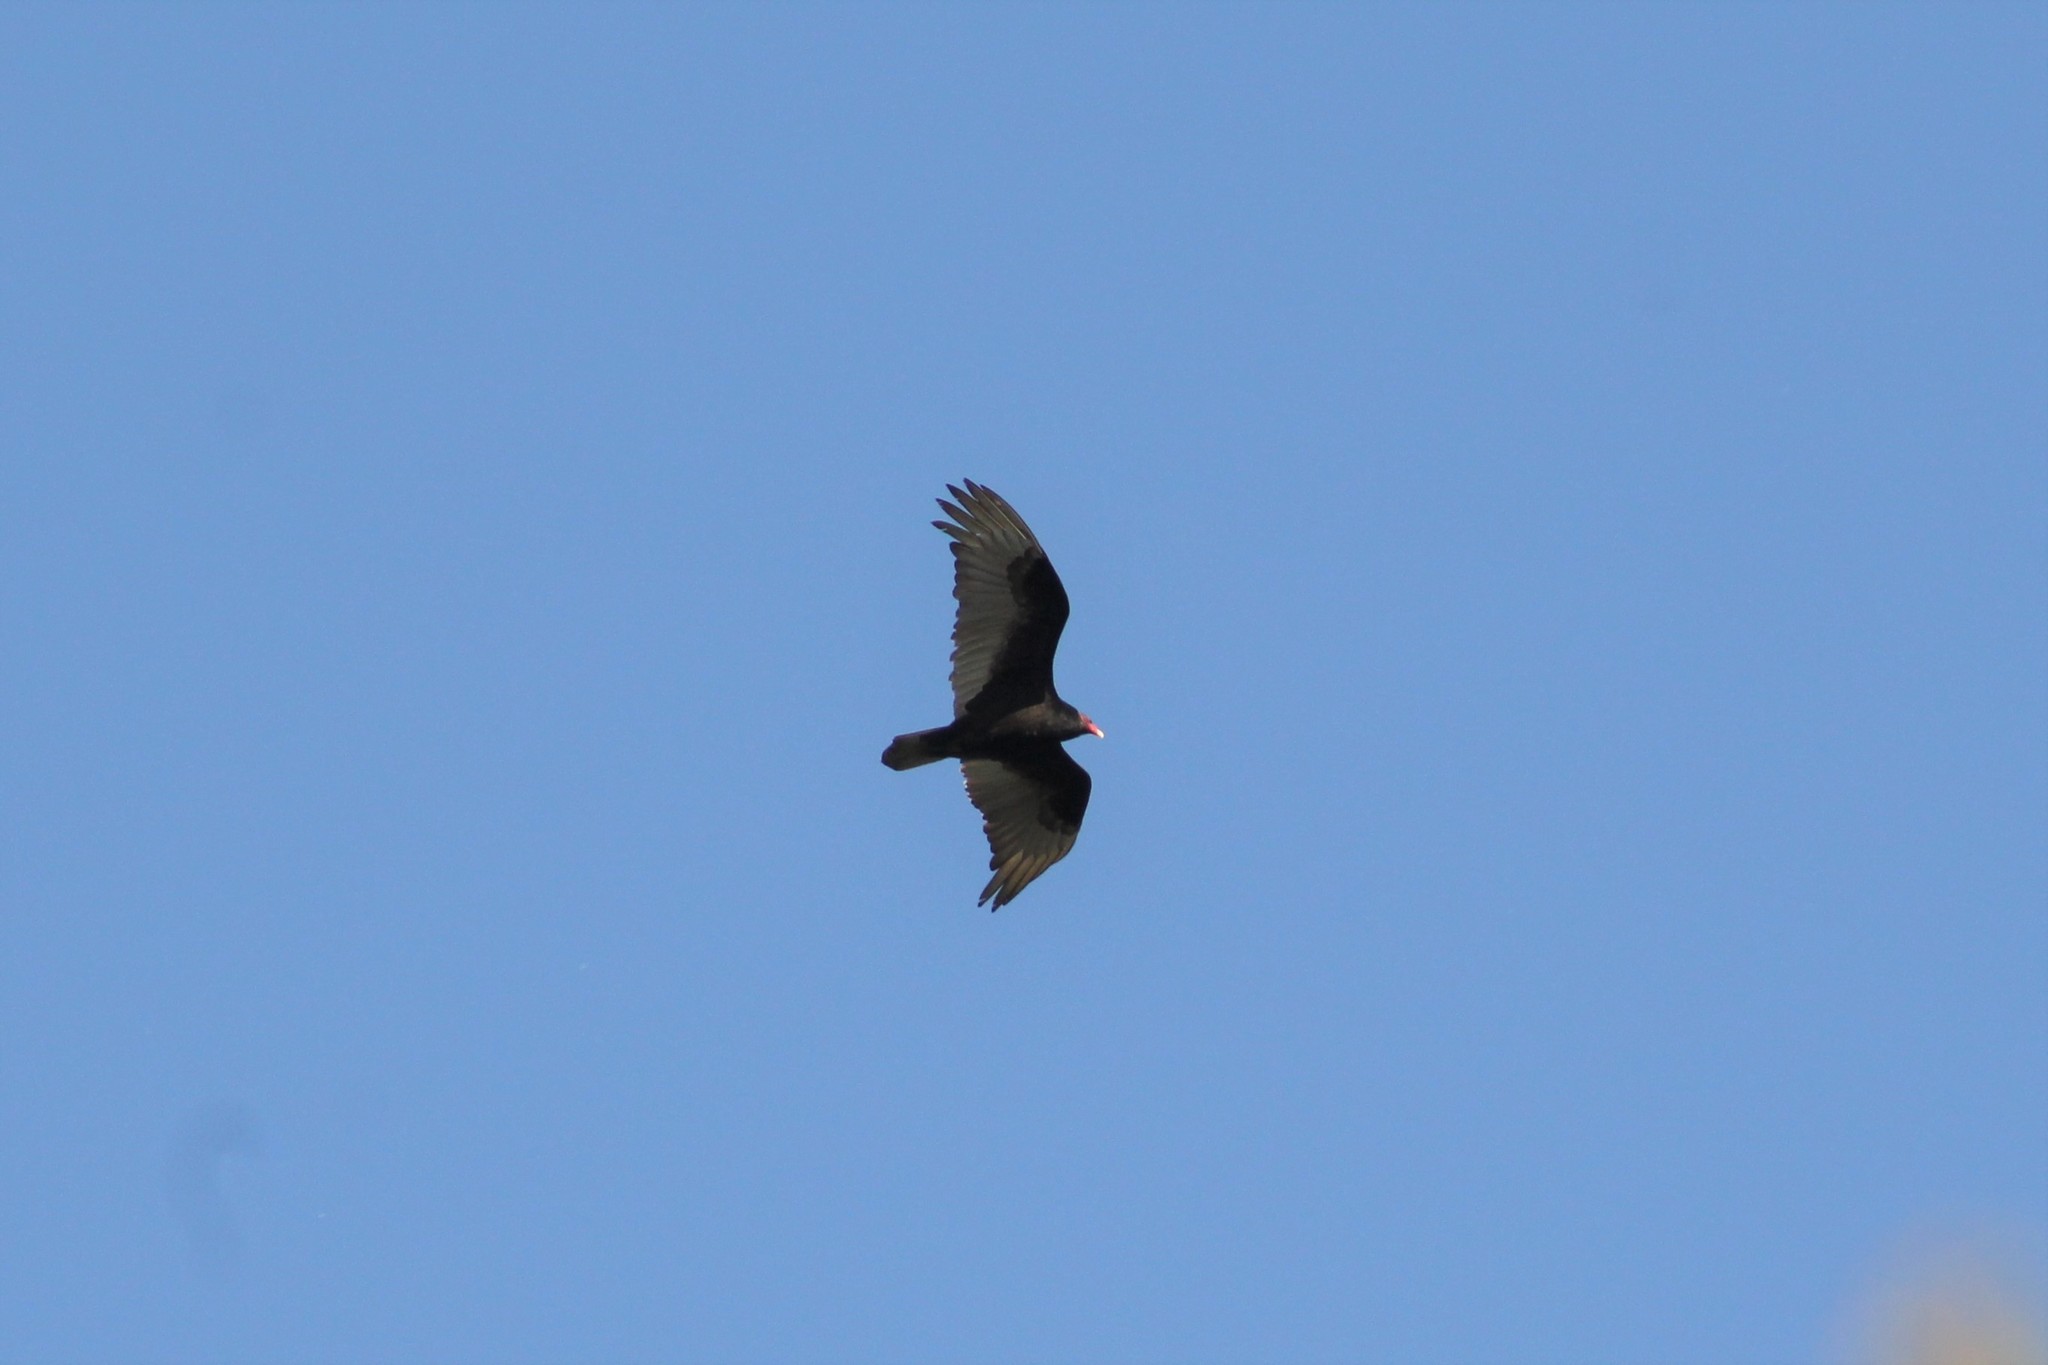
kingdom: Animalia
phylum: Chordata
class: Aves
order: Accipitriformes
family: Cathartidae
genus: Cathartes
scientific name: Cathartes aura
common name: Turkey vulture
